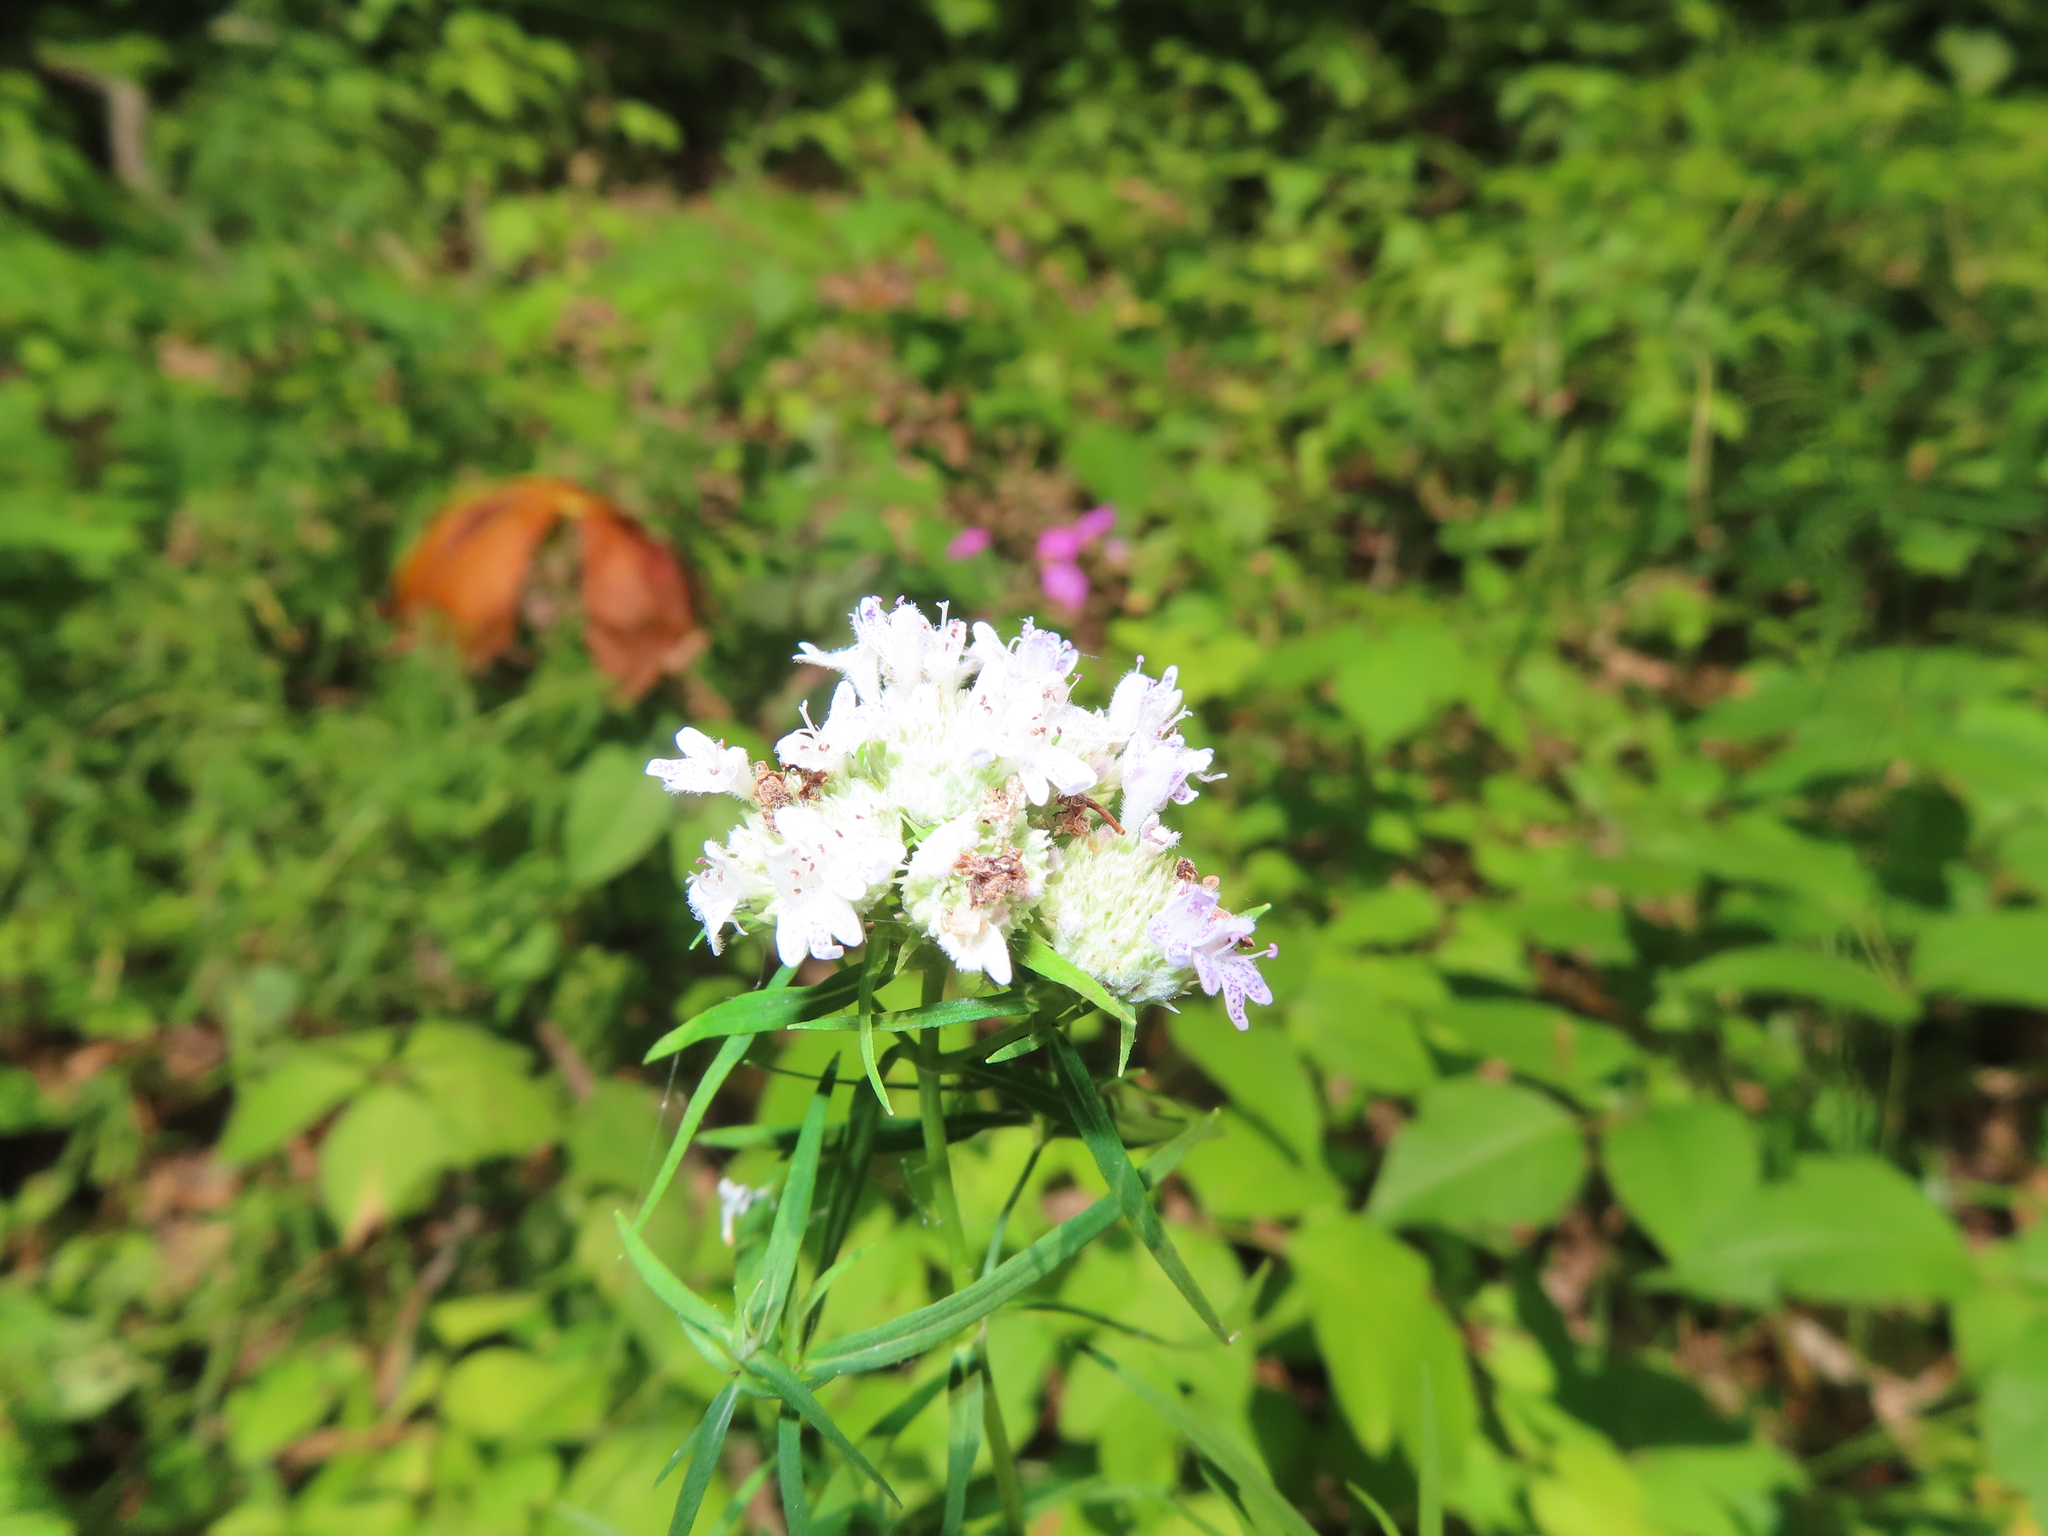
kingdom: Plantae
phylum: Tracheophyta
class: Magnoliopsida
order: Lamiales
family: Lamiaceae
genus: Pycnanthemum
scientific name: Pycnanthemum tenuifolium
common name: Narrow-leaf mountain-mint
